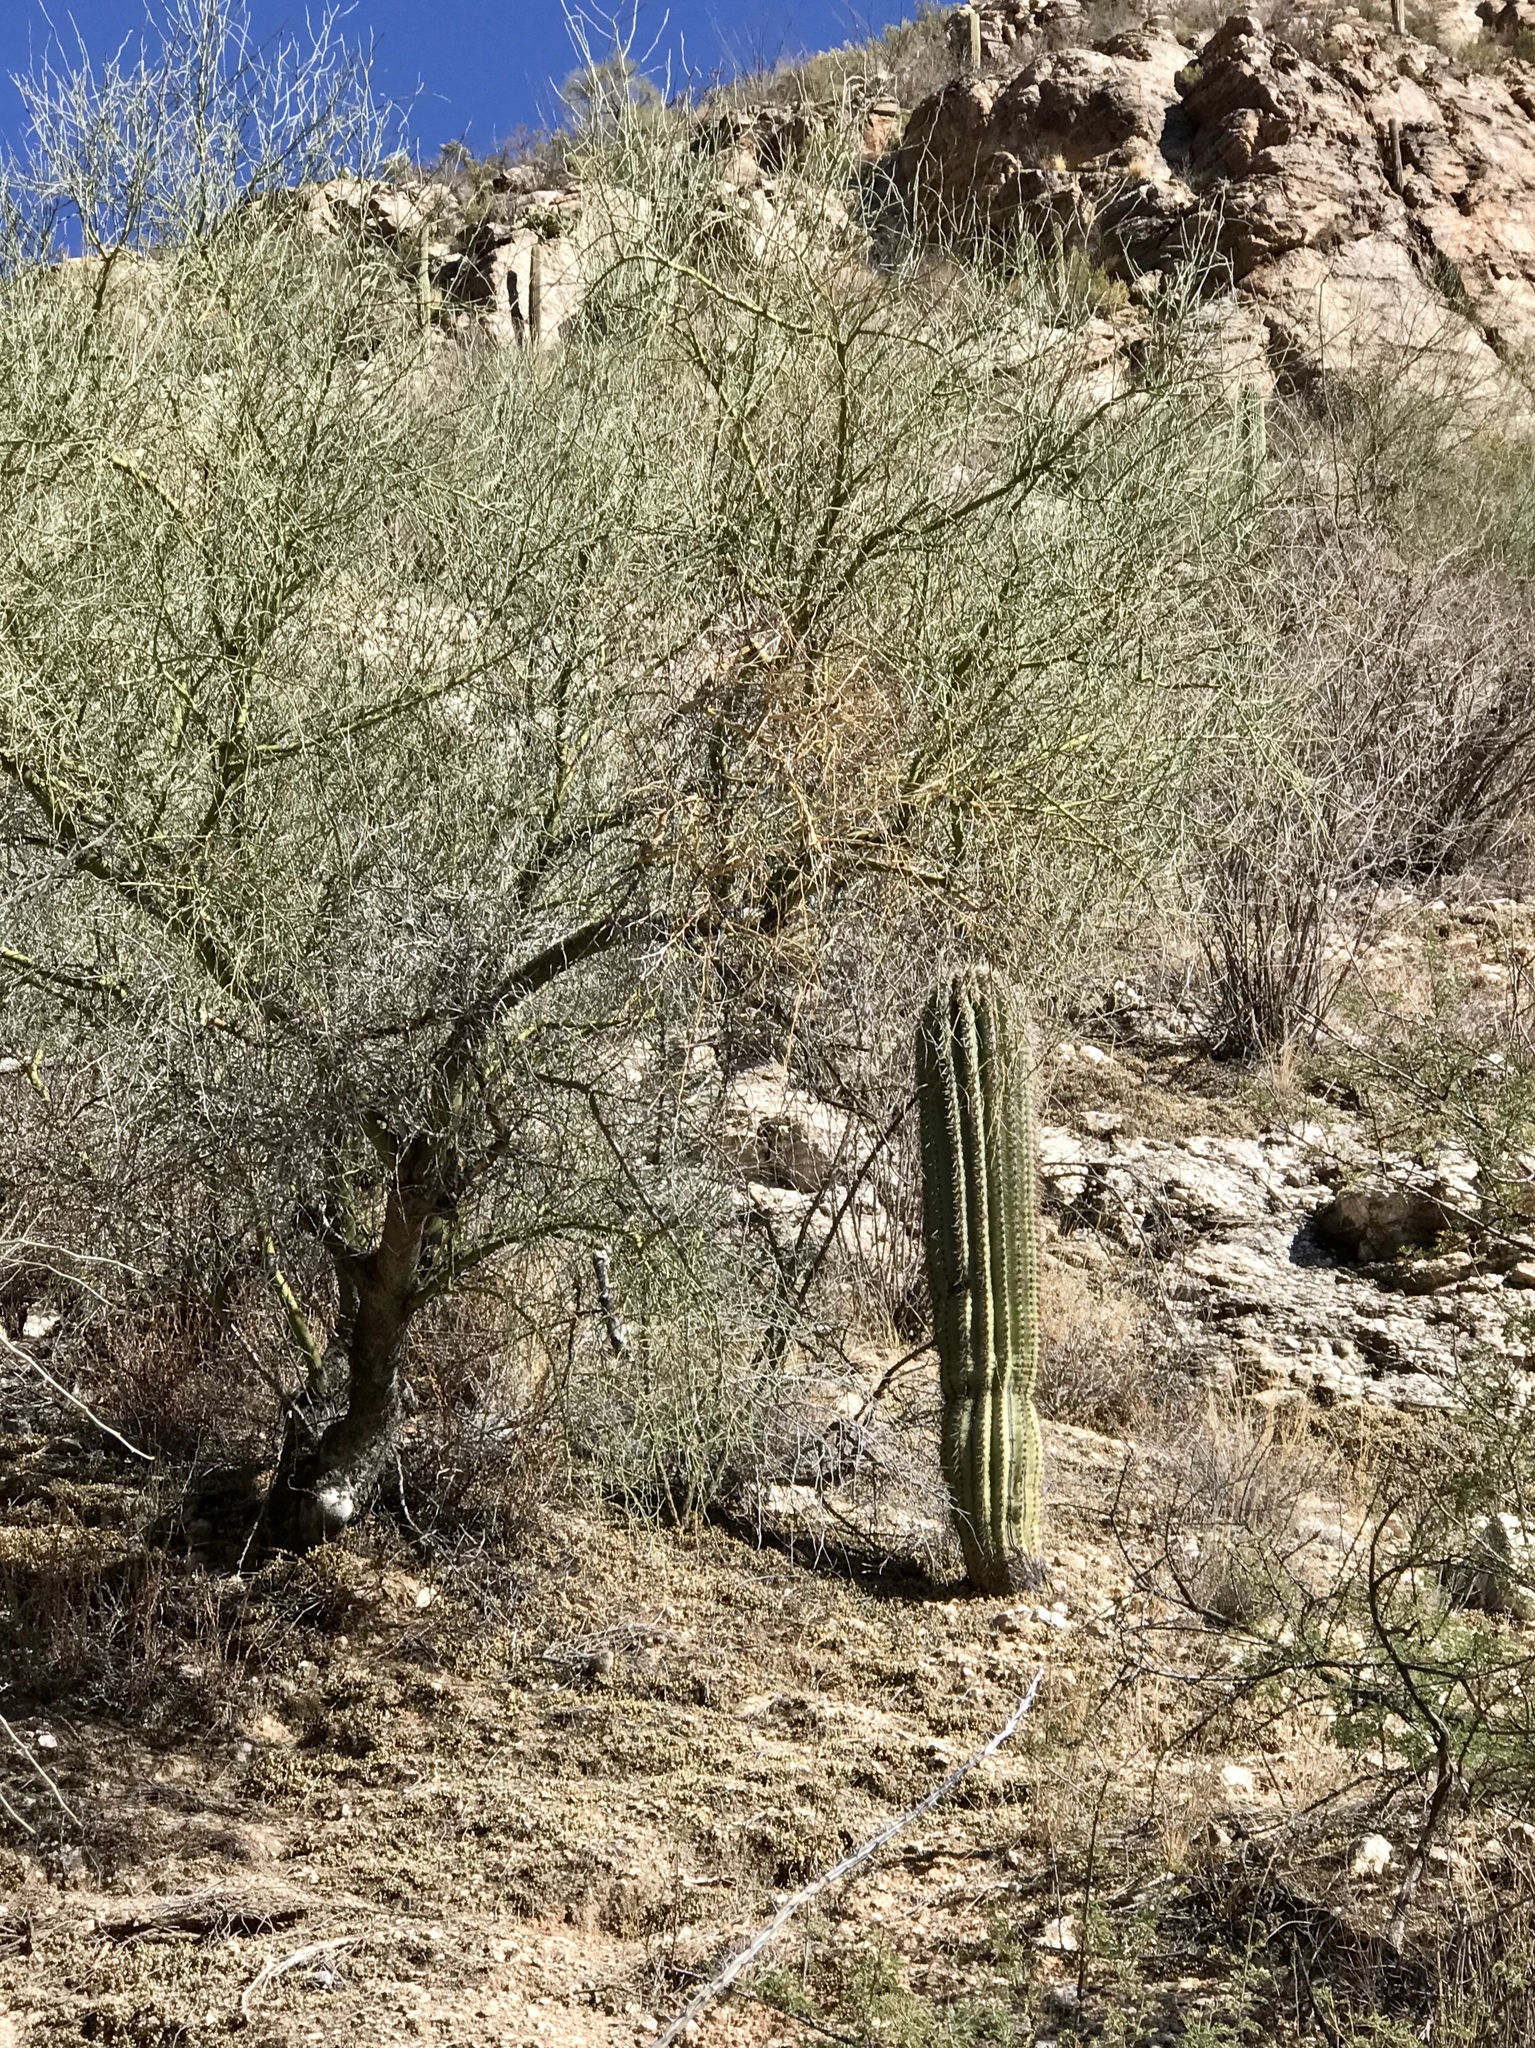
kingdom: Plantae
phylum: Tracheophyta
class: Magnoliopsida
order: Fabales
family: Fabaceae
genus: Parkinsonia
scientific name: Parkinsonia microphylla
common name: Yellow paloverde
